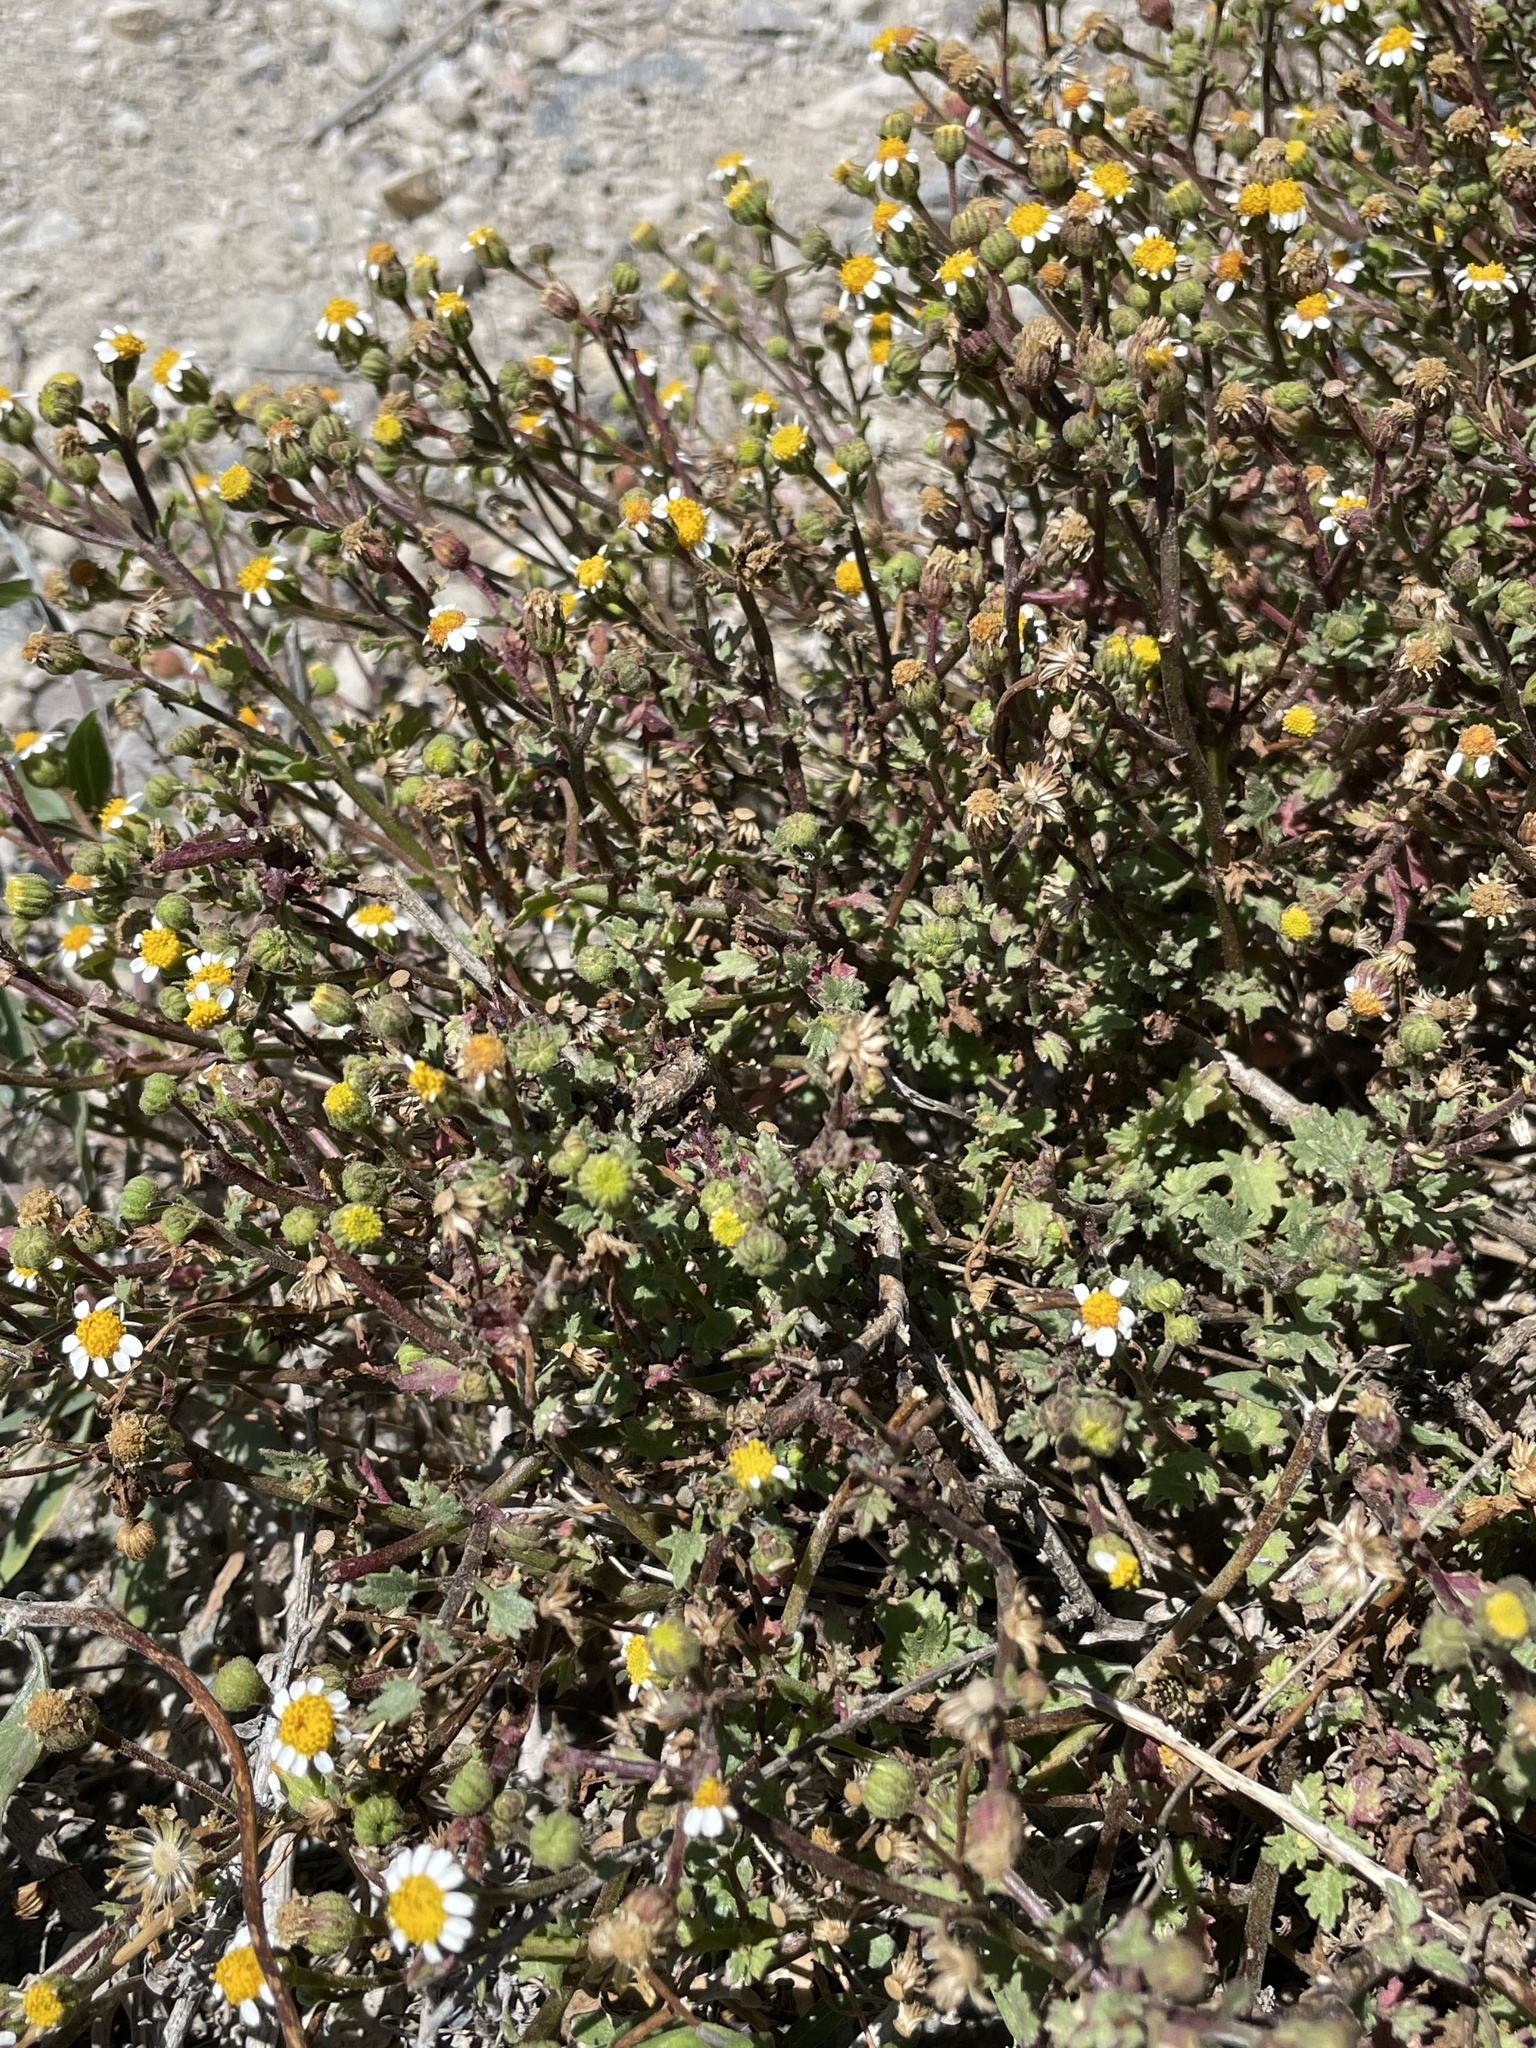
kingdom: Plantae
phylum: Tracheophyta
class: Magnoliopsida
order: Asterales
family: Asteraceae
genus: Laphamia
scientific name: Laphamia emoryi
